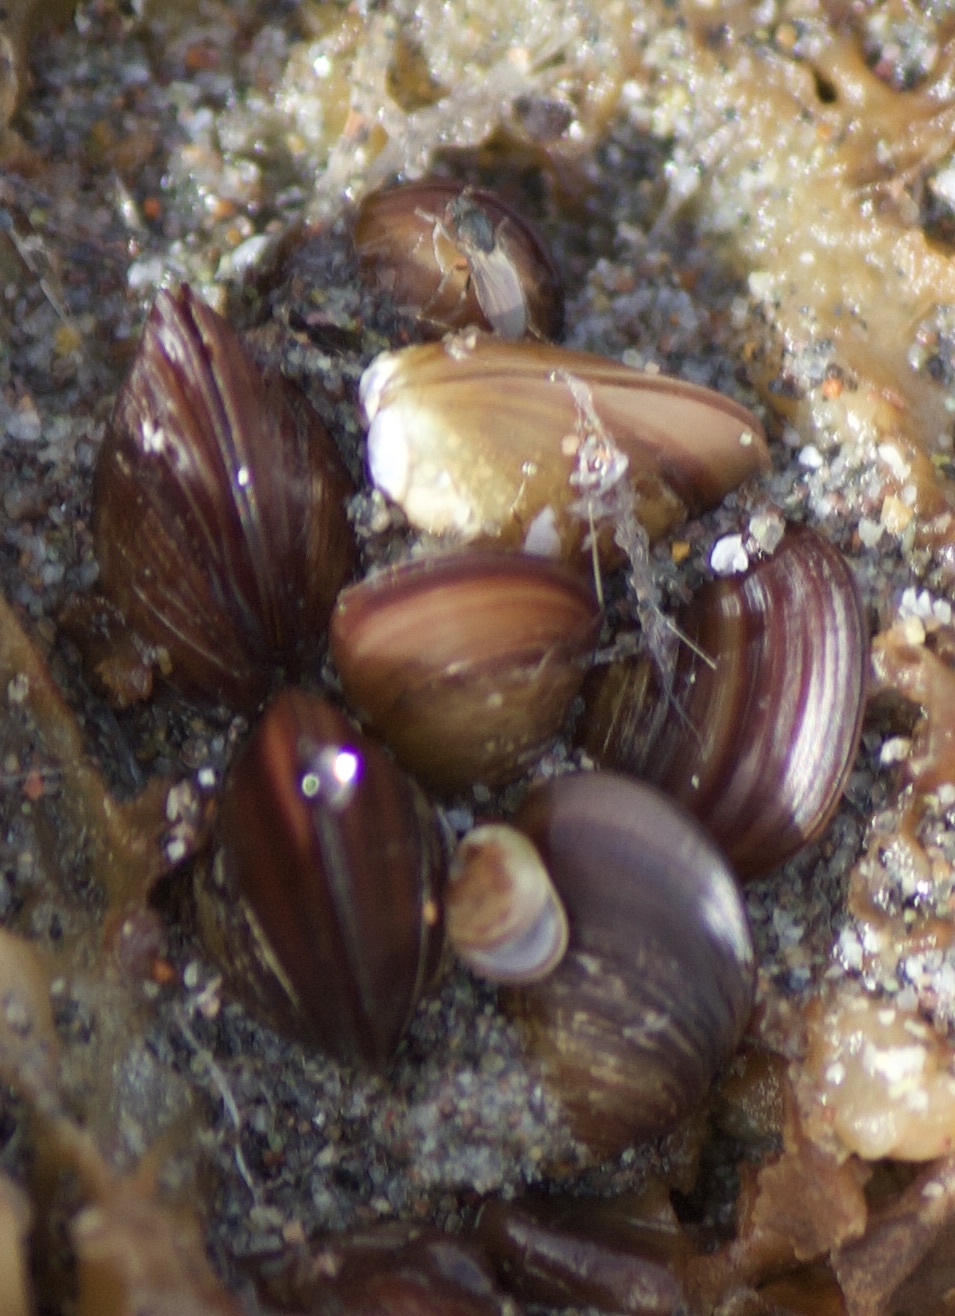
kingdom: Animalia
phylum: Mollusca
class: Bivalvia
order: Mytilida
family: Mytilidae
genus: Semimytilus
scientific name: Semimytilus patagonicus
